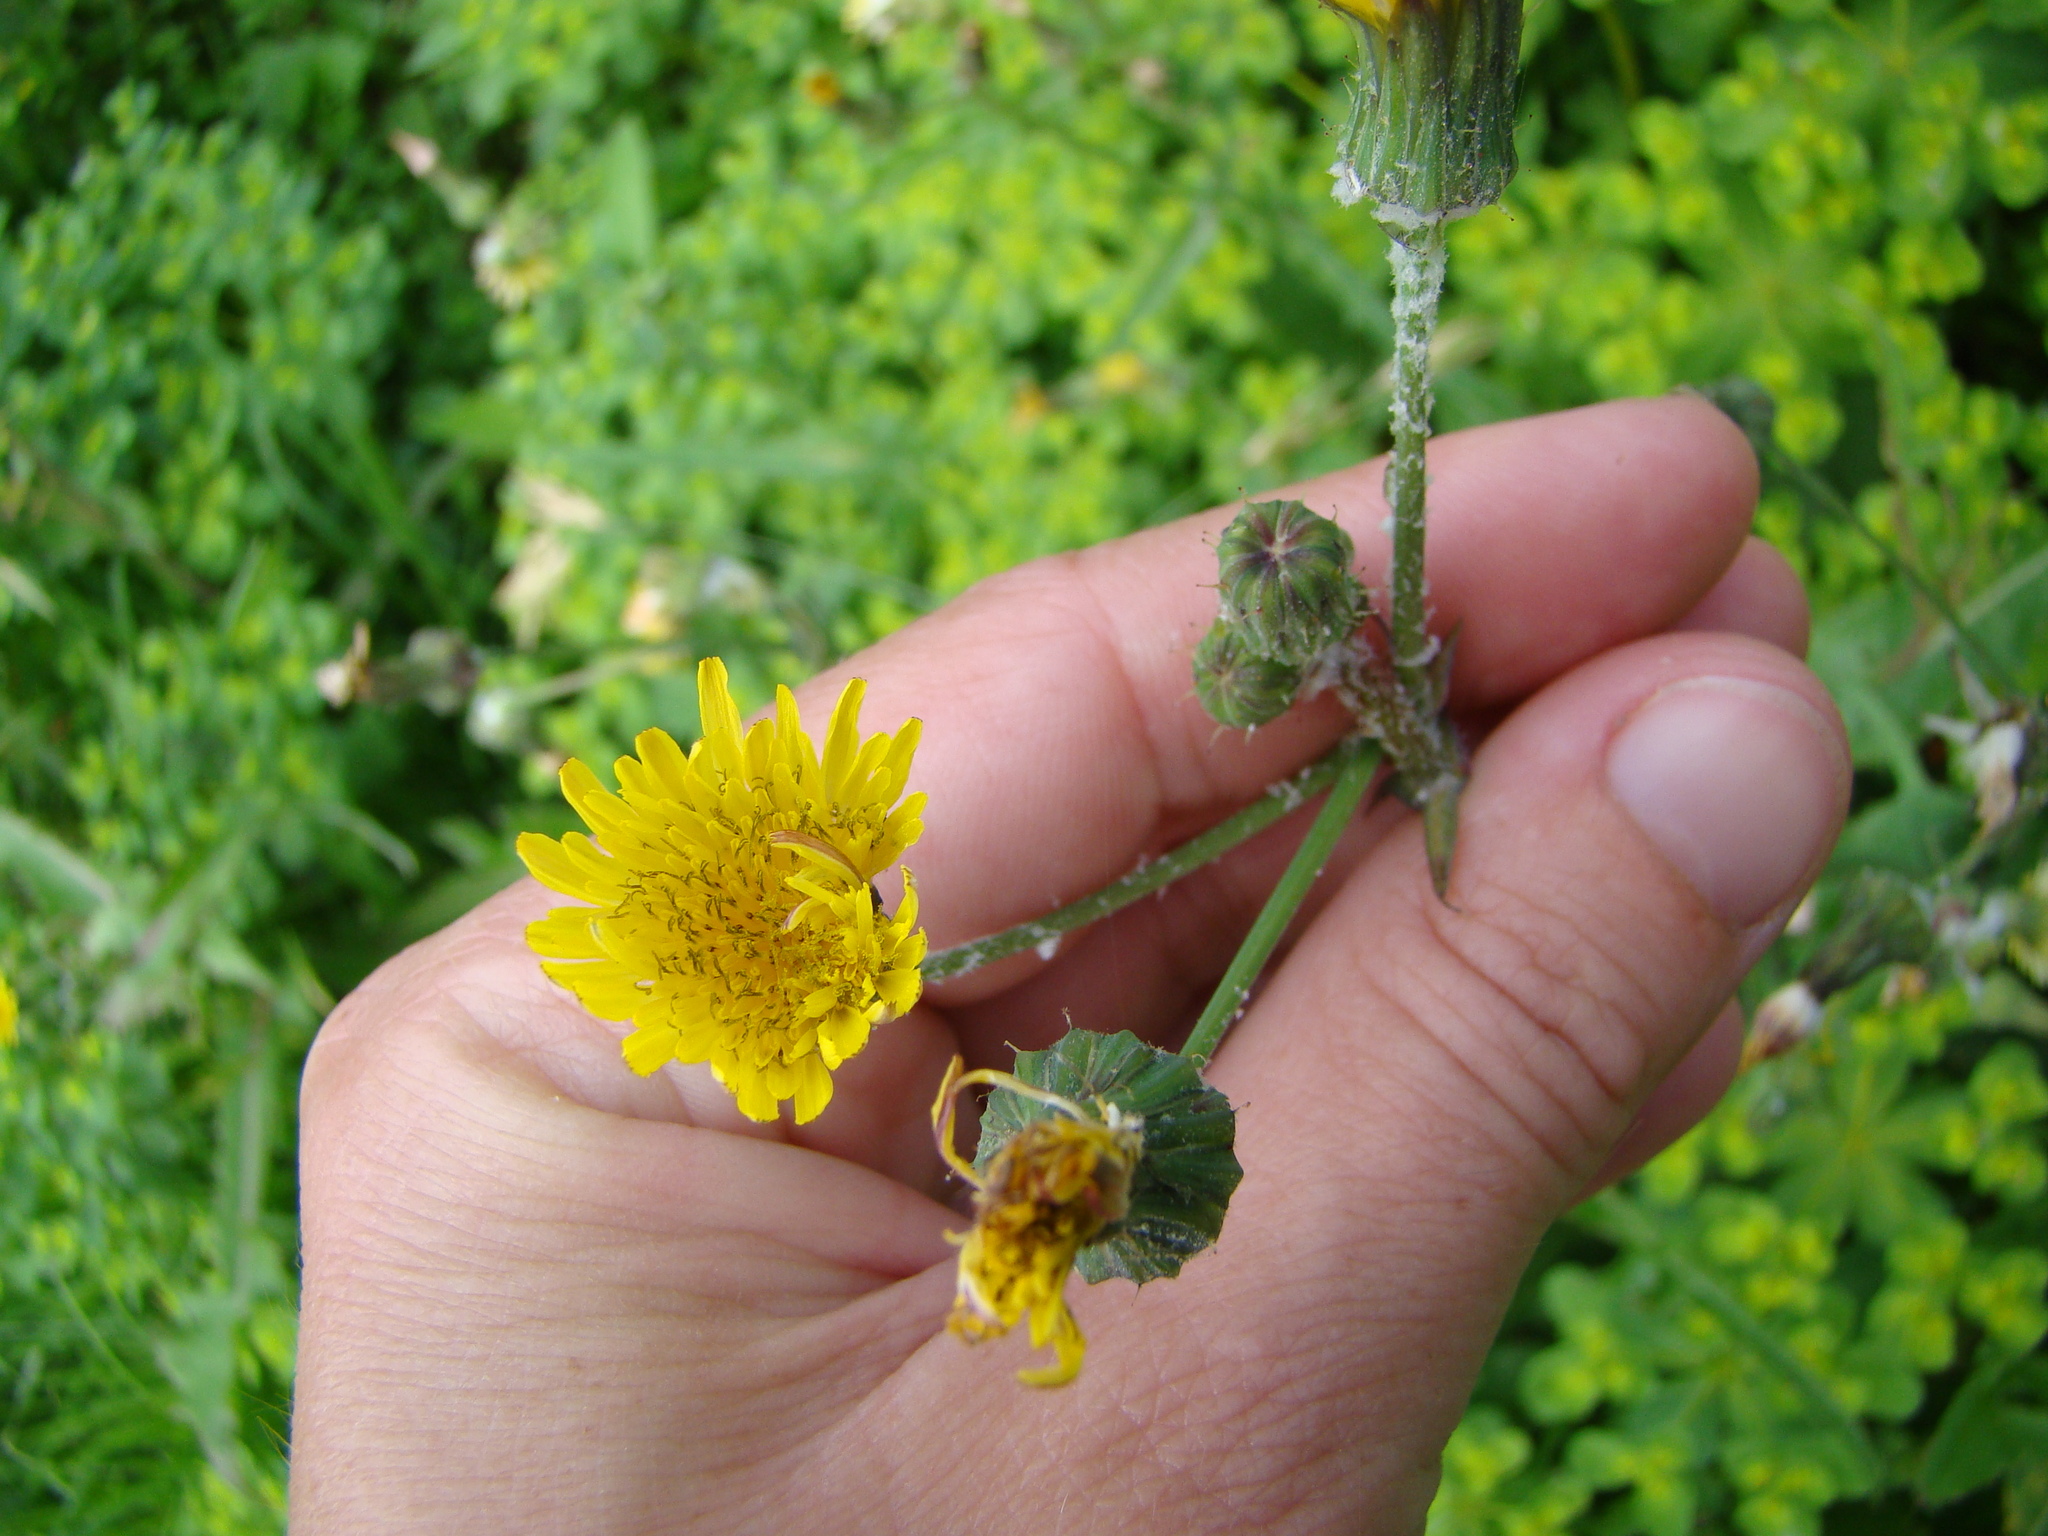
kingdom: Plantae
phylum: Tracheophyta
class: Magnoliopsida
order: Asterales
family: Asteraceae
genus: Sonchus
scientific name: Sonchus oleraceus
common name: Common sowthistle
